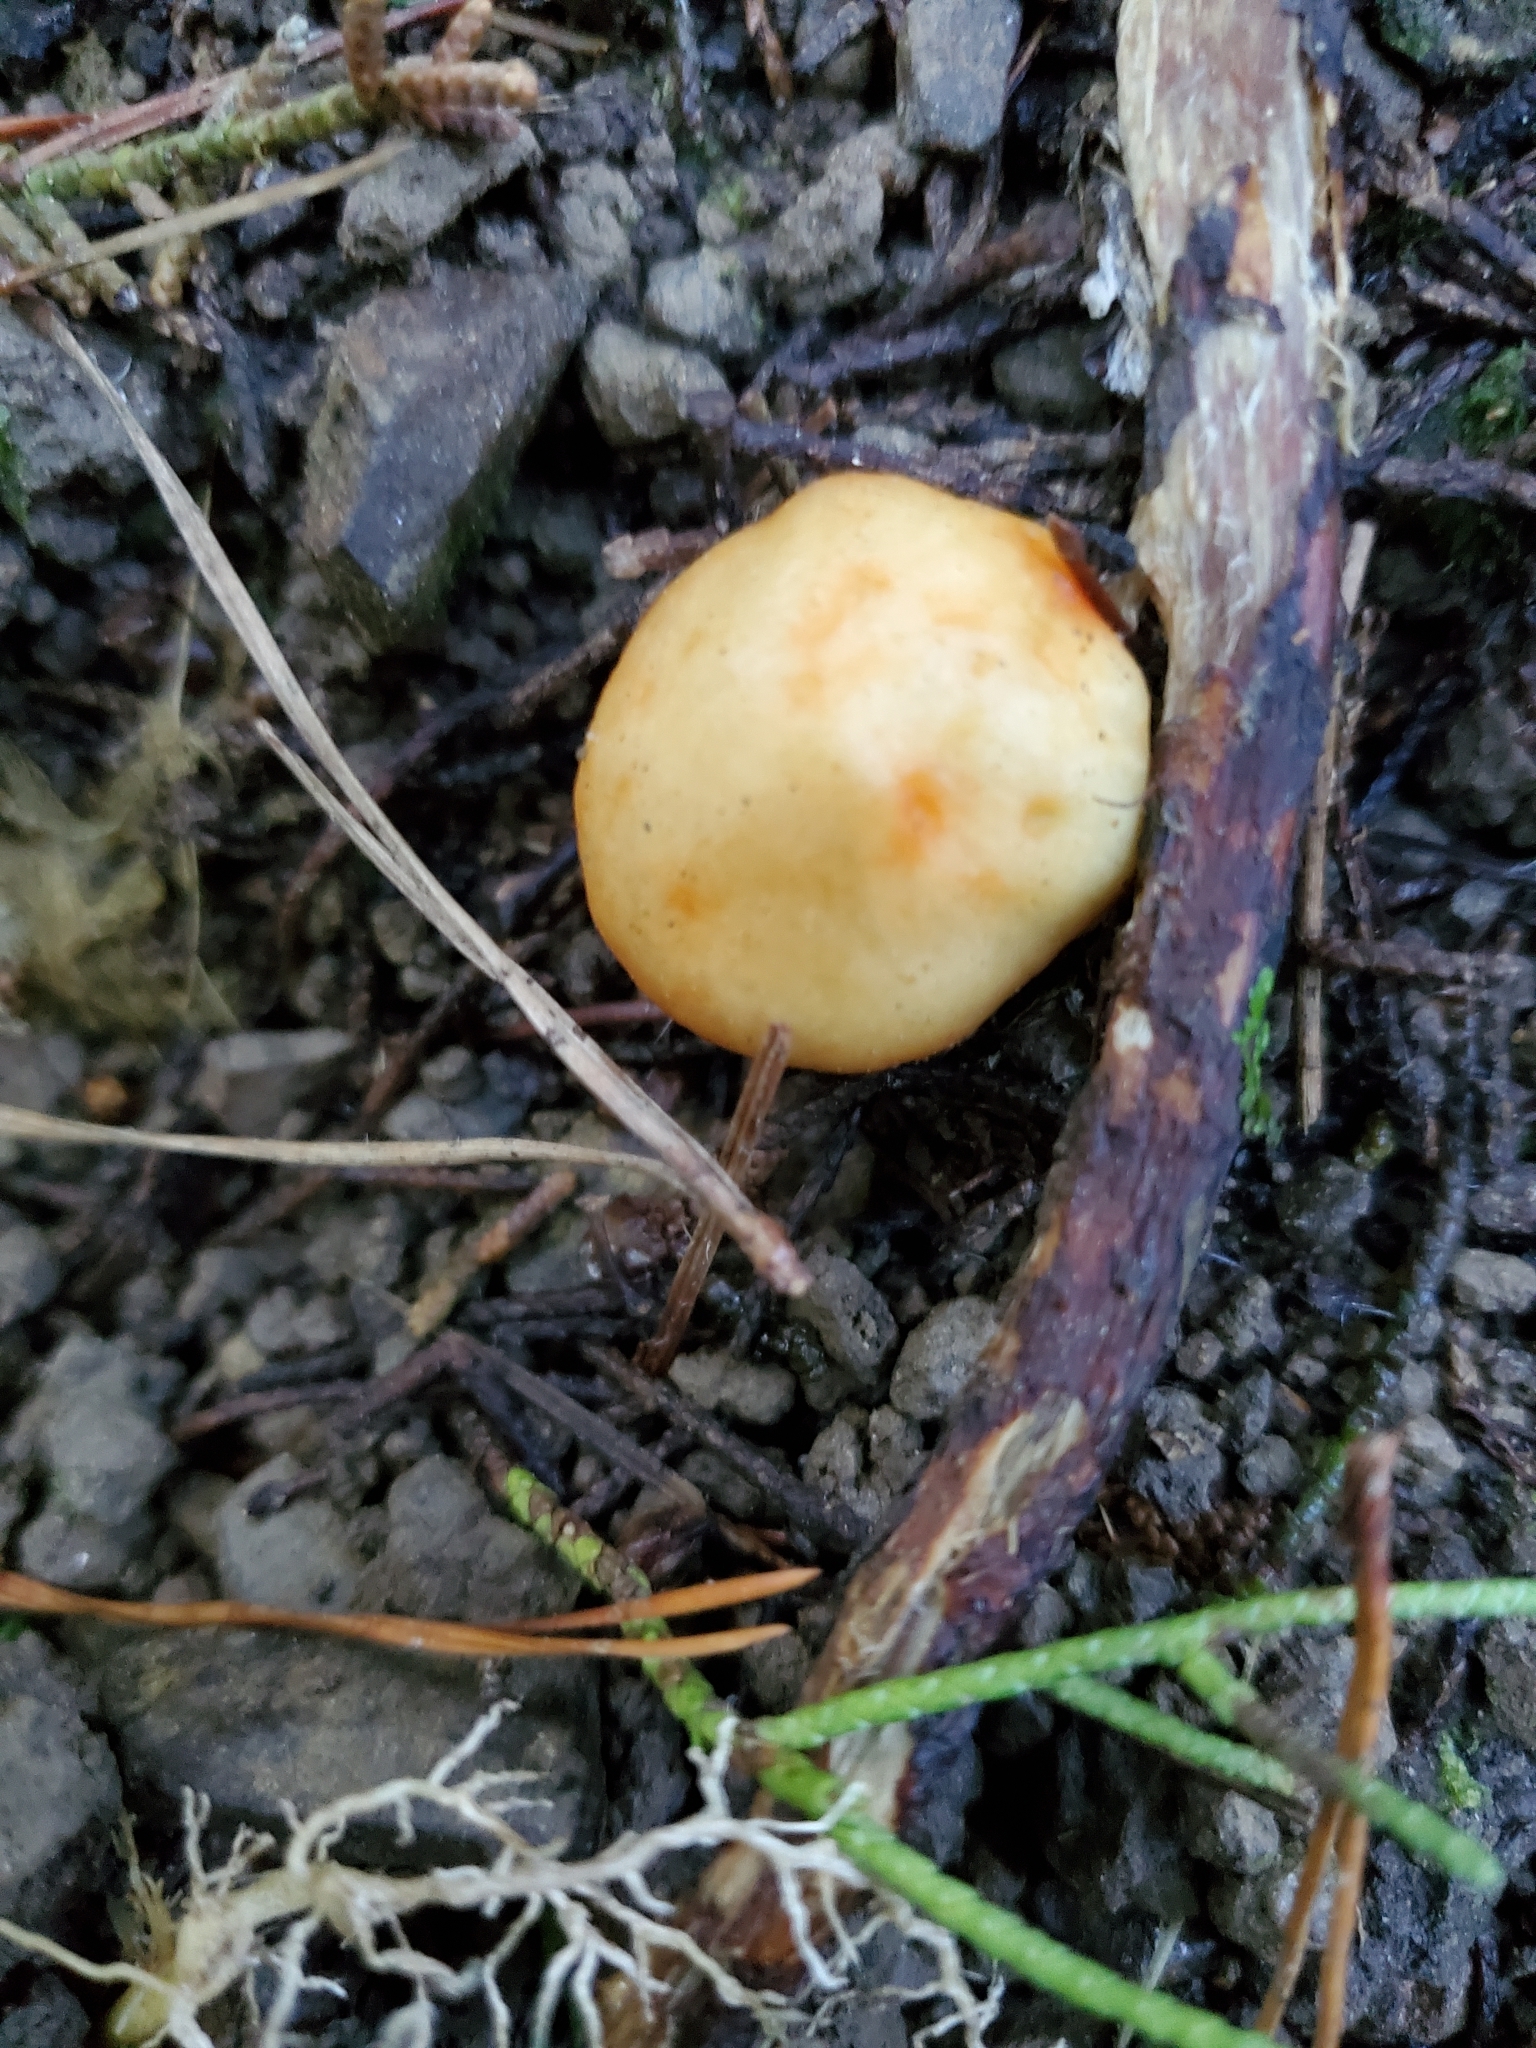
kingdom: Fungi
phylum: Basidiomycota
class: Agaricomycetes
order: Agaricales
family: Cortinariaceae
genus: Cortinarius
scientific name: Cortinarius epiphaeus
